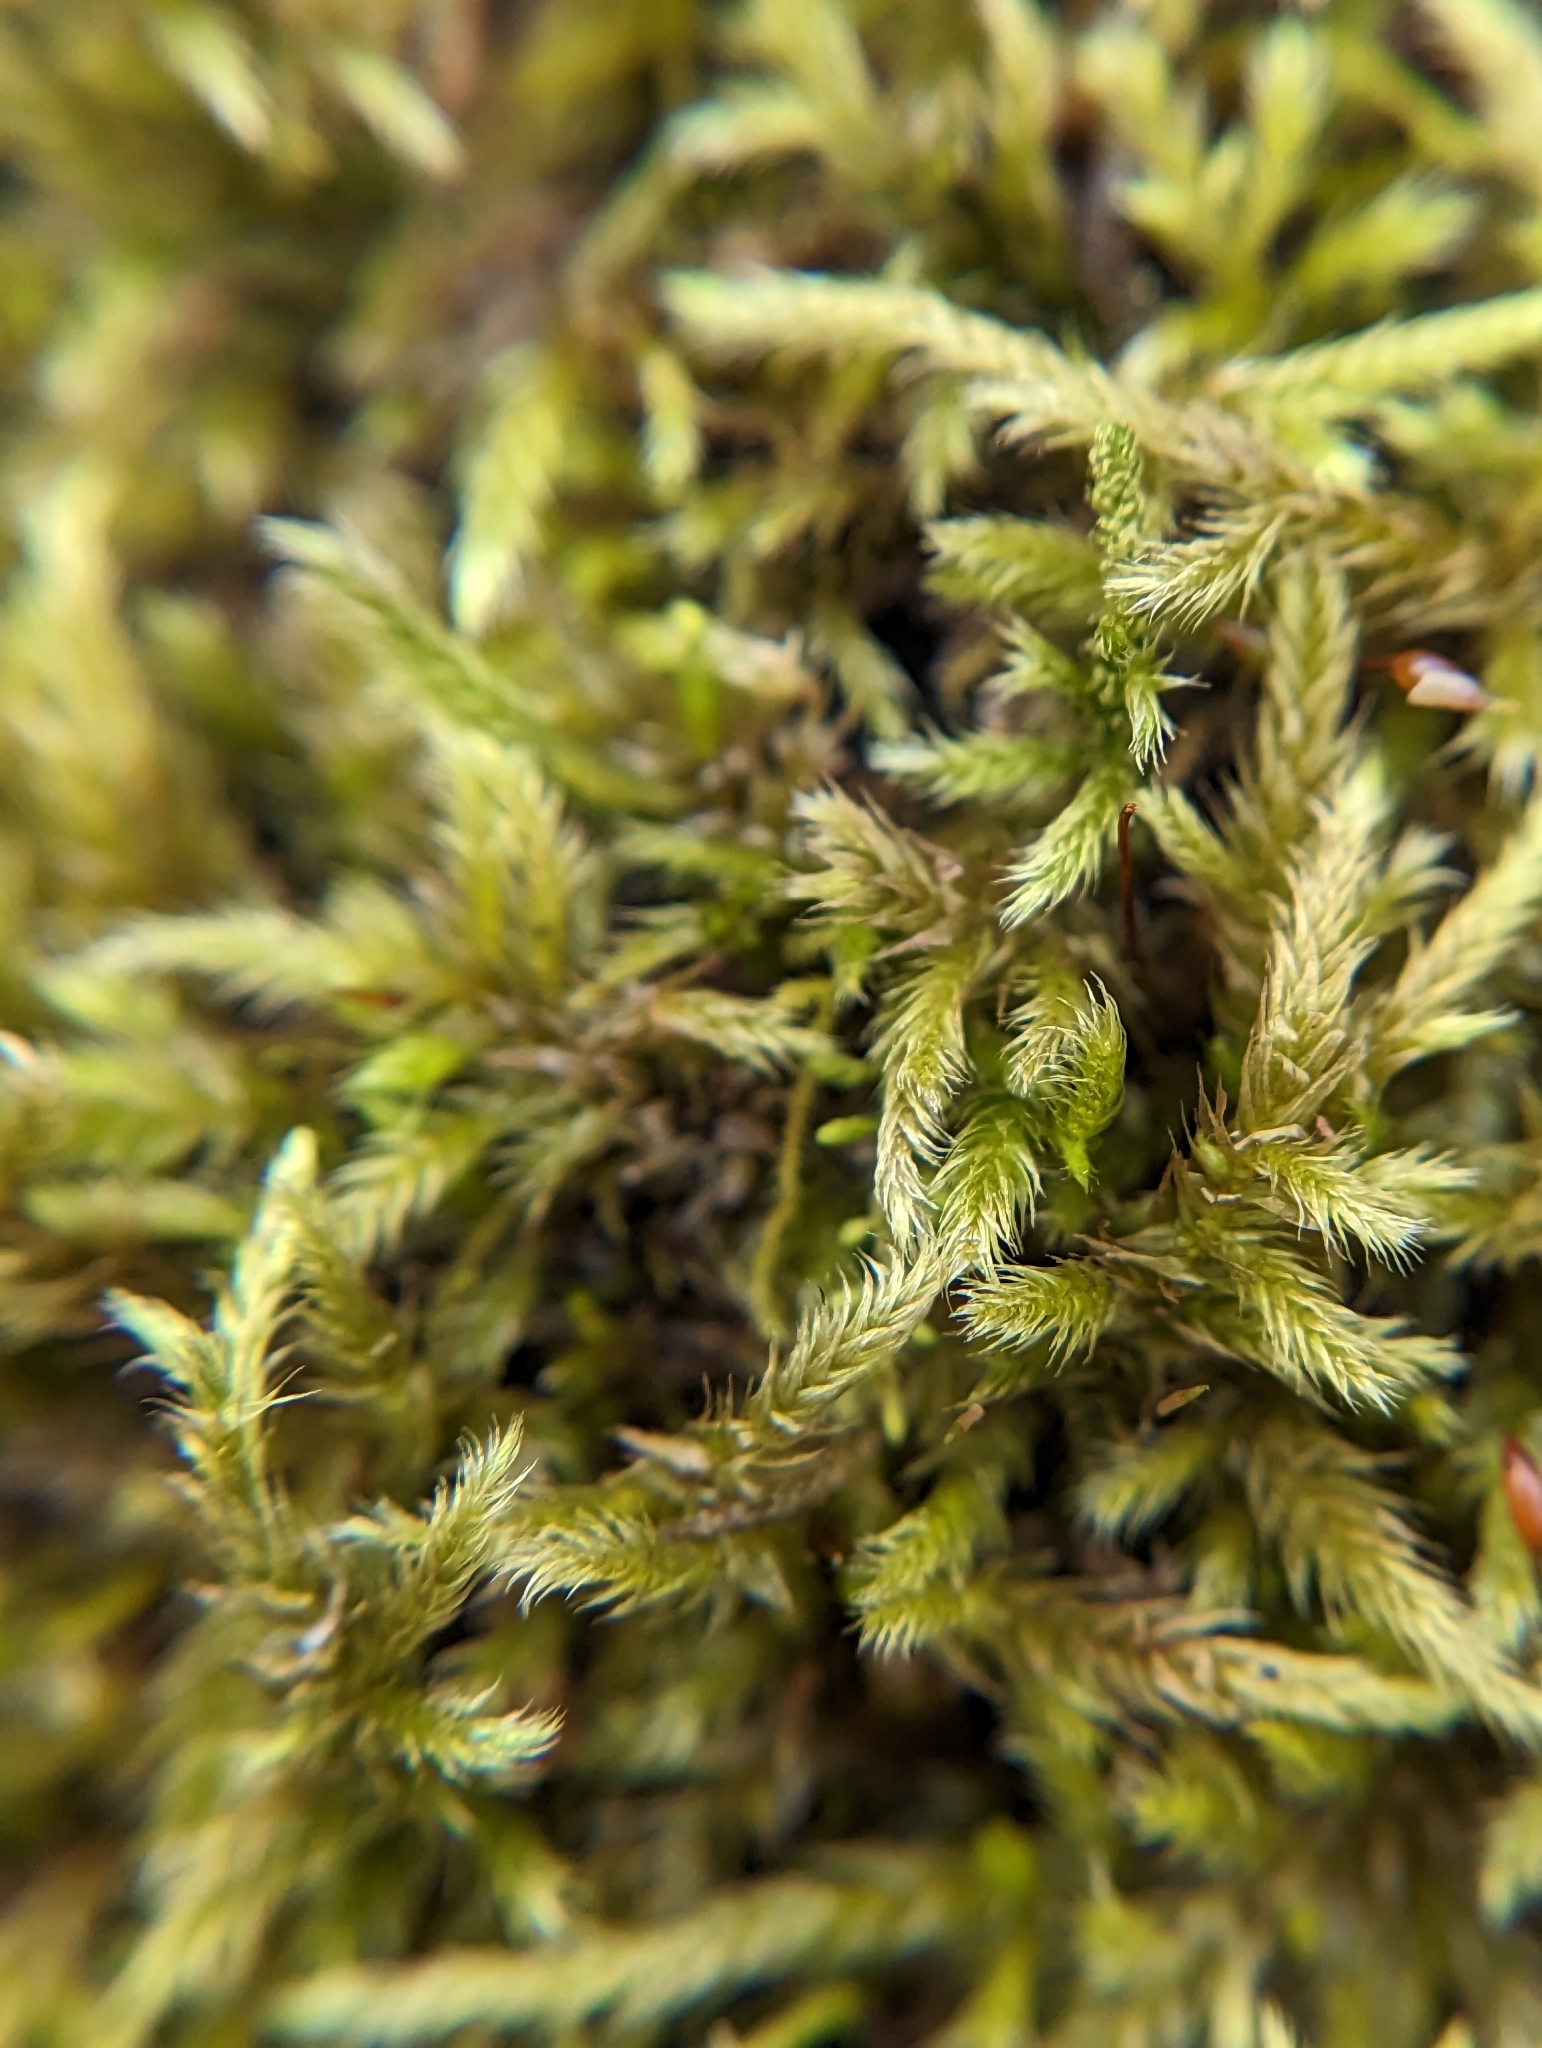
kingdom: Plantae
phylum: Bryophyta
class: Bryopsida
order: Hypnales
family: Callicladiaceae
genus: Callicladium
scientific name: Callicladium haldanianum
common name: Beautiful branch moss
